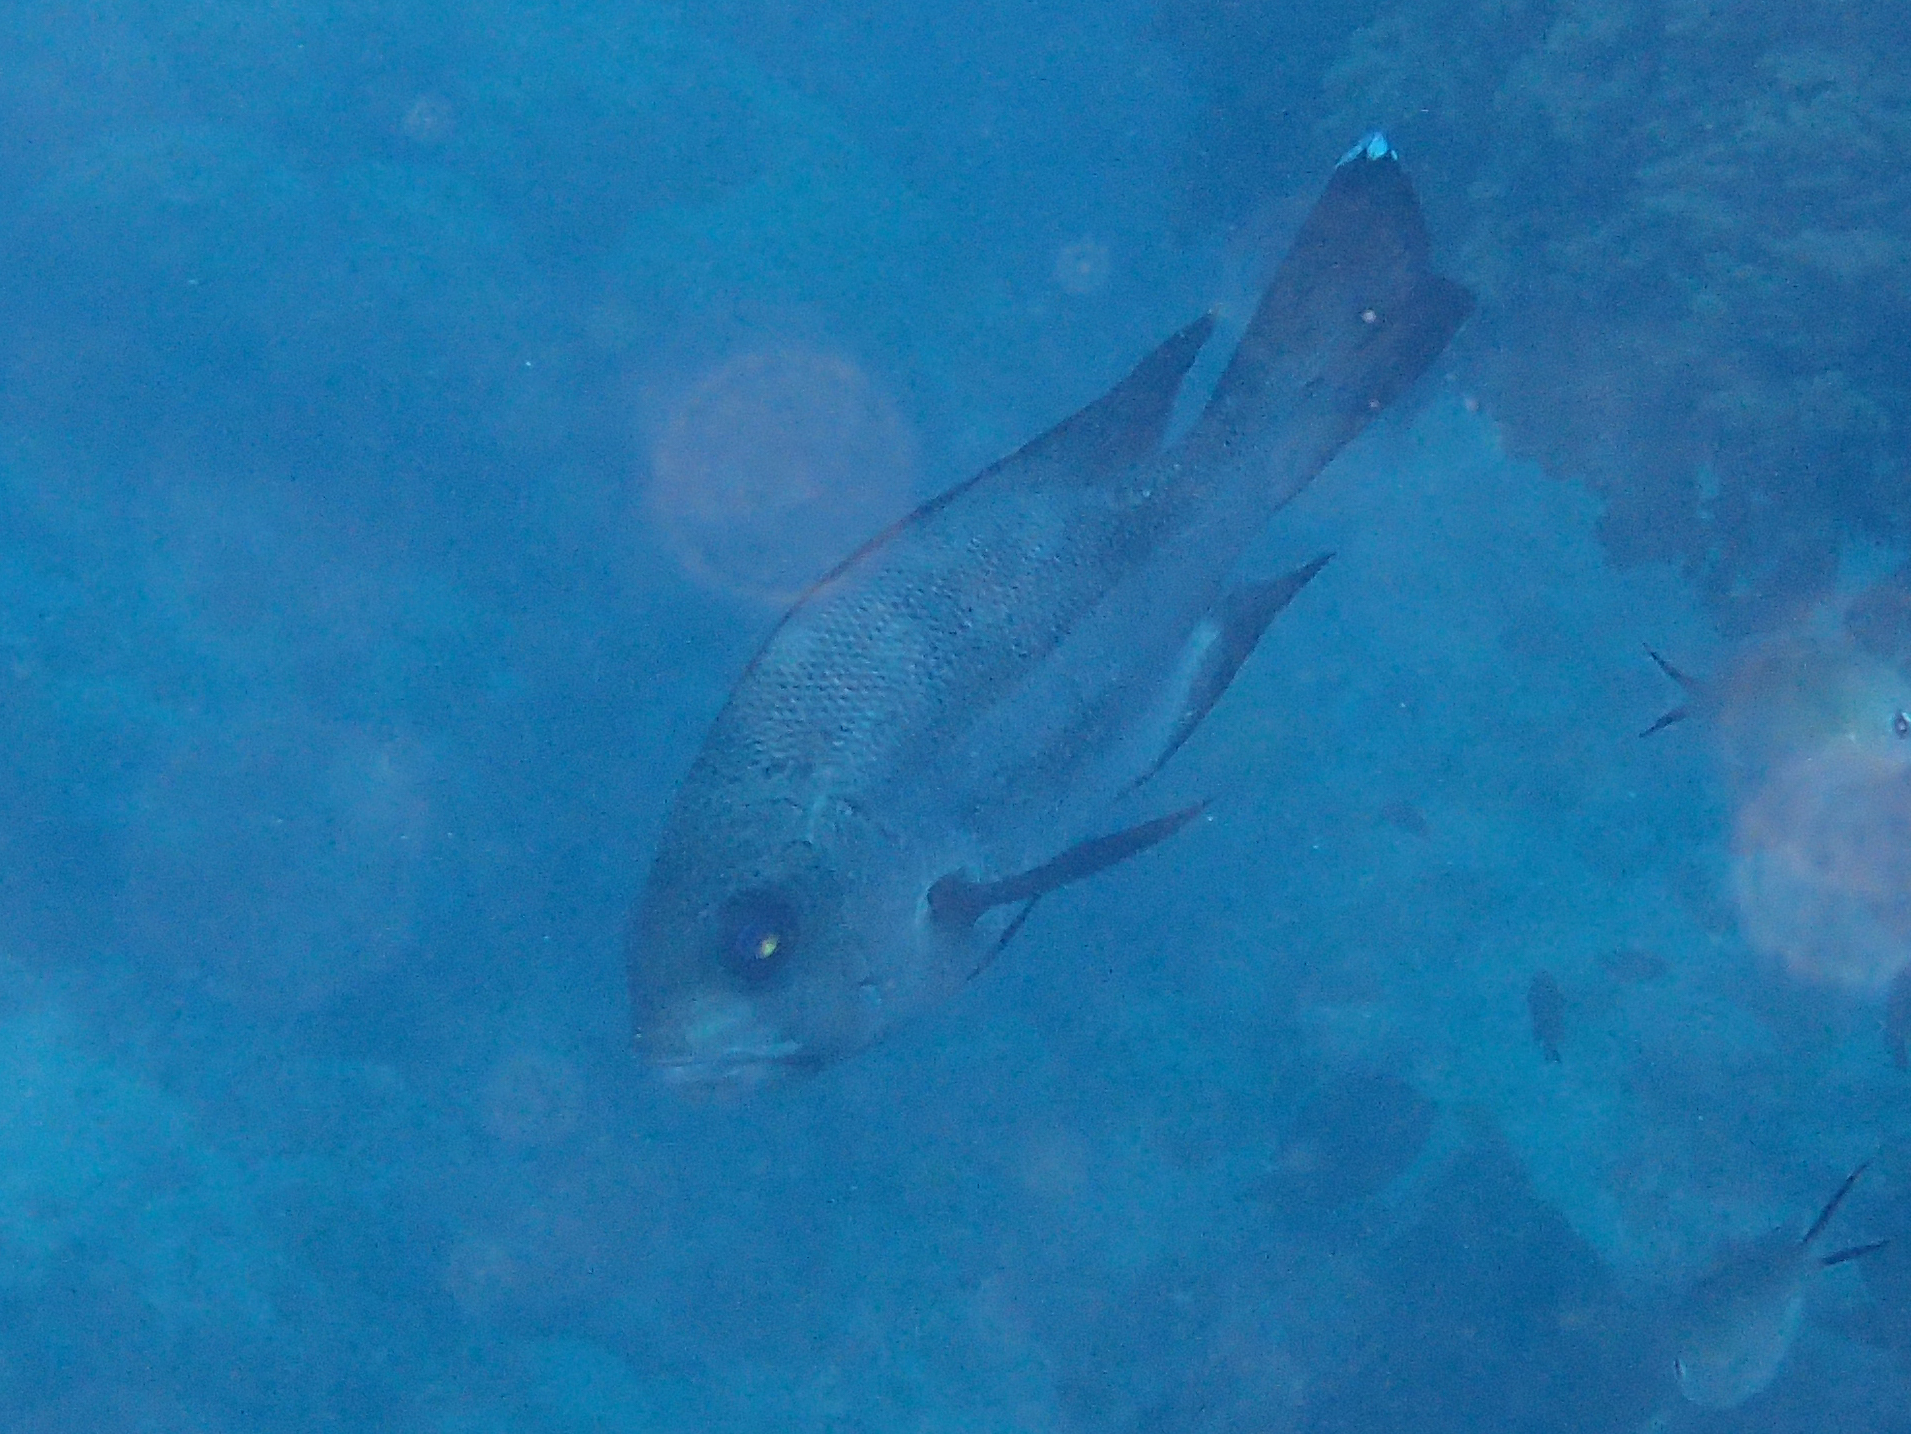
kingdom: Animalia
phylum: Chordata
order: Perciformes
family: Lutjanidae
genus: Macolor
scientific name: Macolor niger
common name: Black snapper
